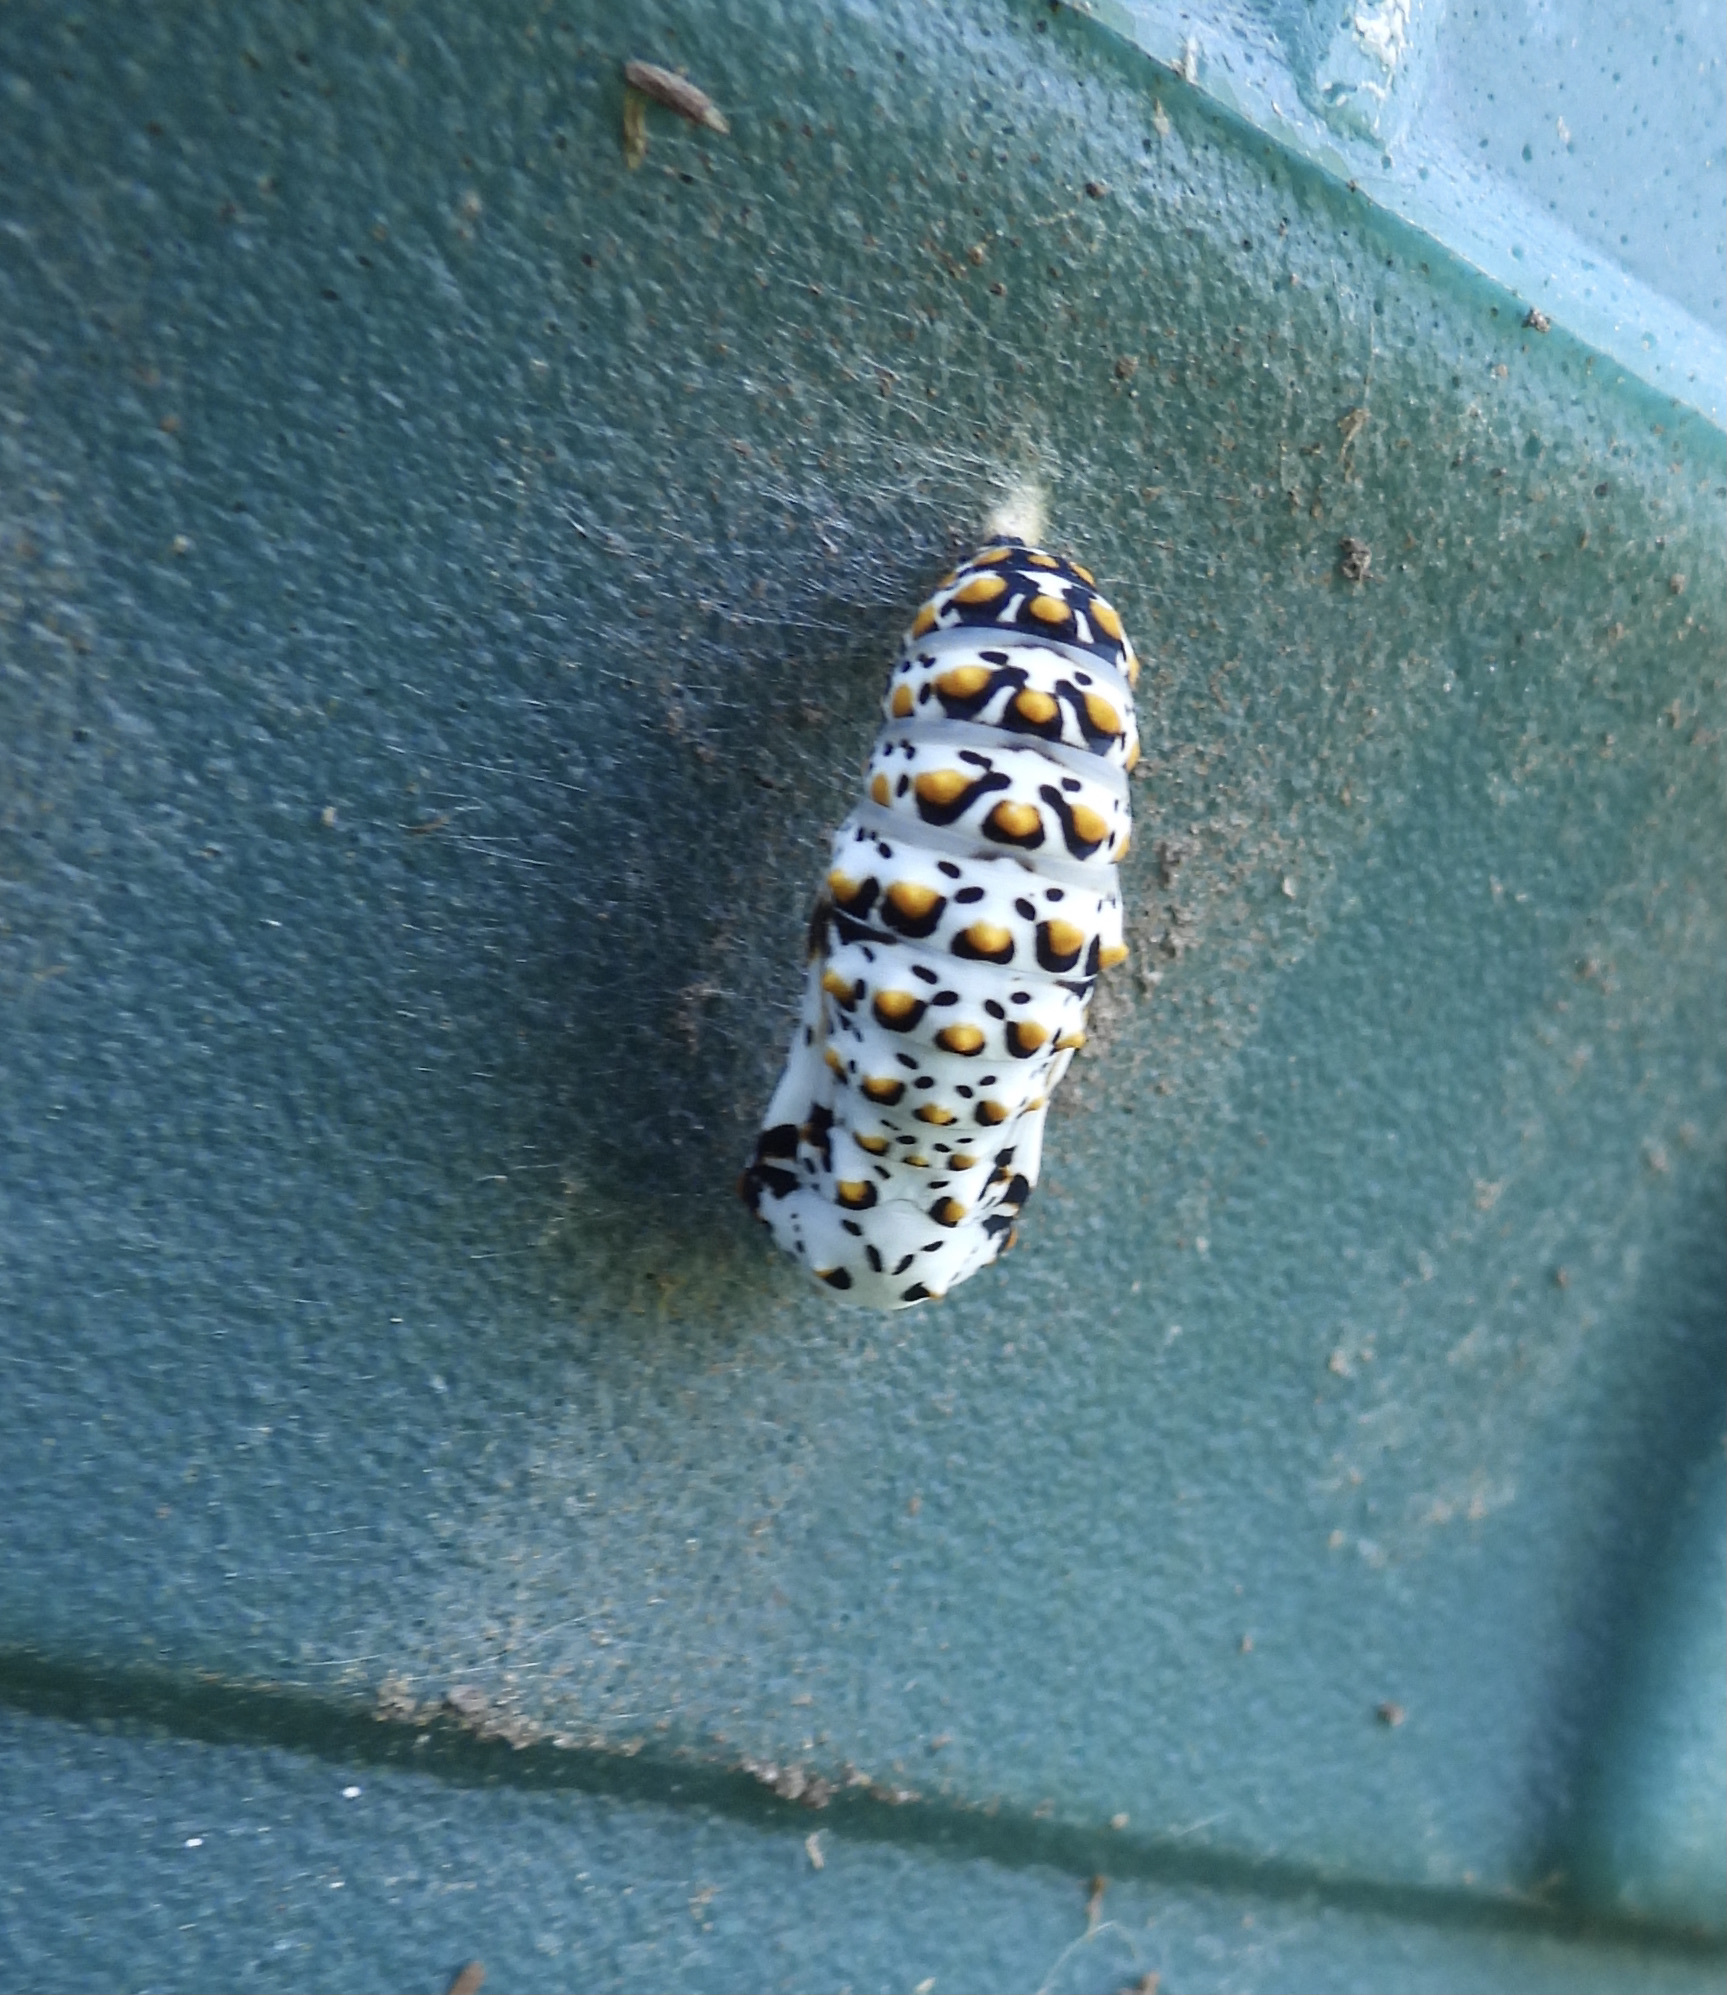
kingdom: Animalia
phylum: Arthropoda
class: Insecta
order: Lepidoptera
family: Nymphalidae
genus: Euphydryas
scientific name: Euphydryas phaeton
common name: Baltimore checkerspot
